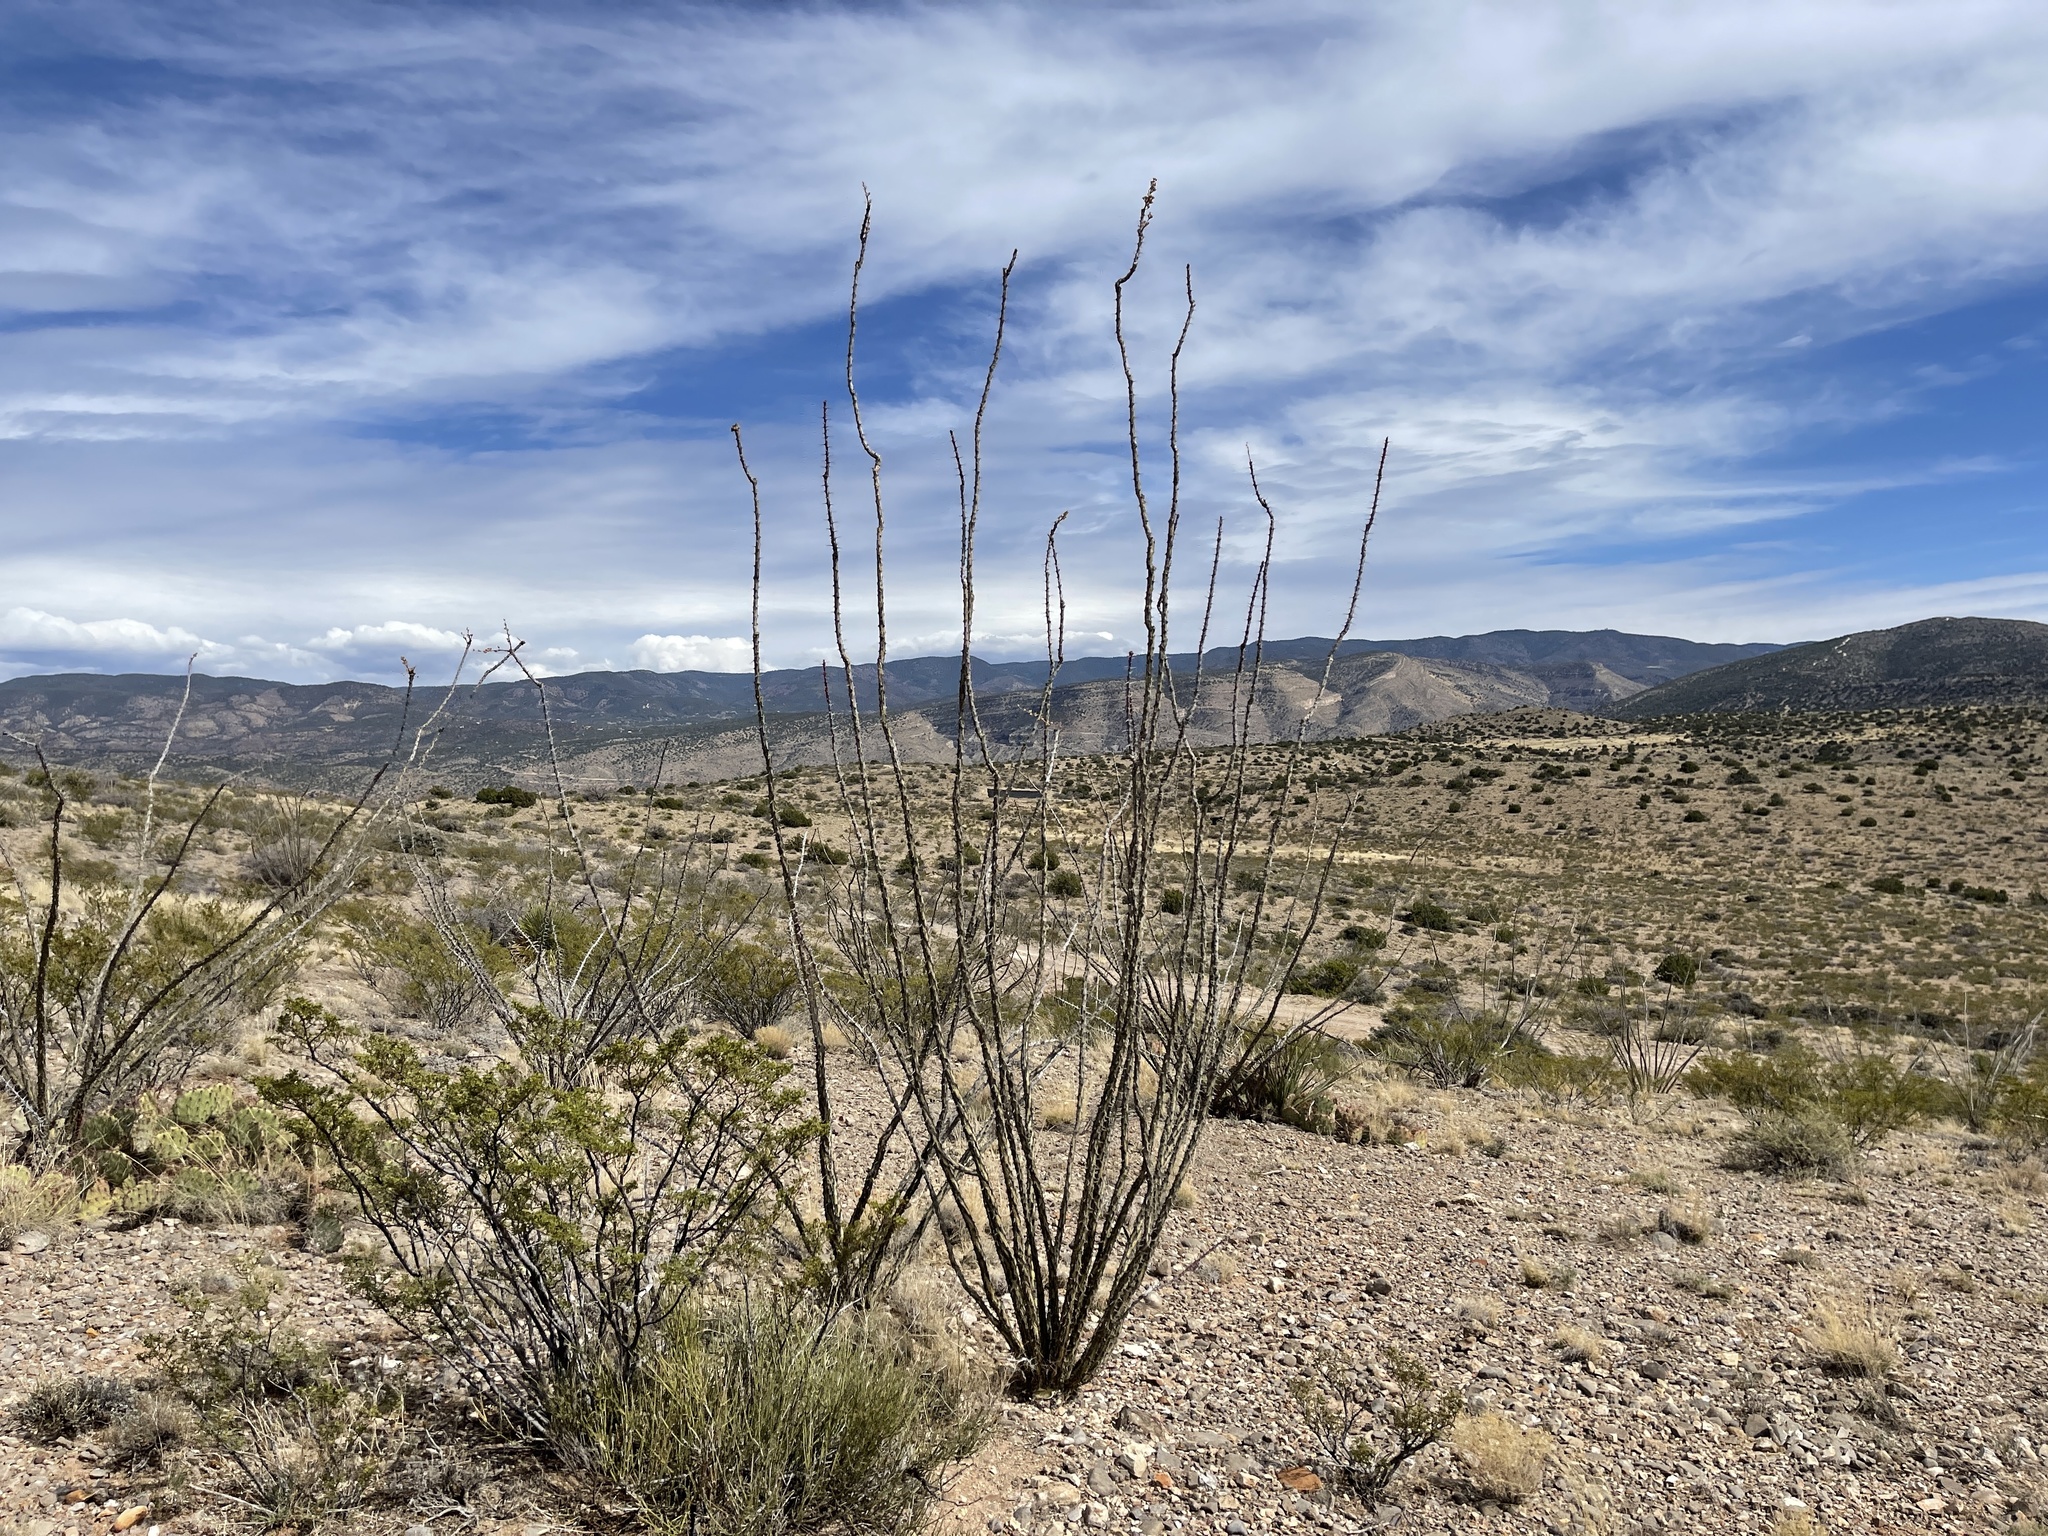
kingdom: Plantae
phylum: Tracheophyta
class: Magnoliopsida
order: Ericales
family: Fouquieriaceae
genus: Fouquieria
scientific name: Fouquieria splendens
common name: Vine-cactus
